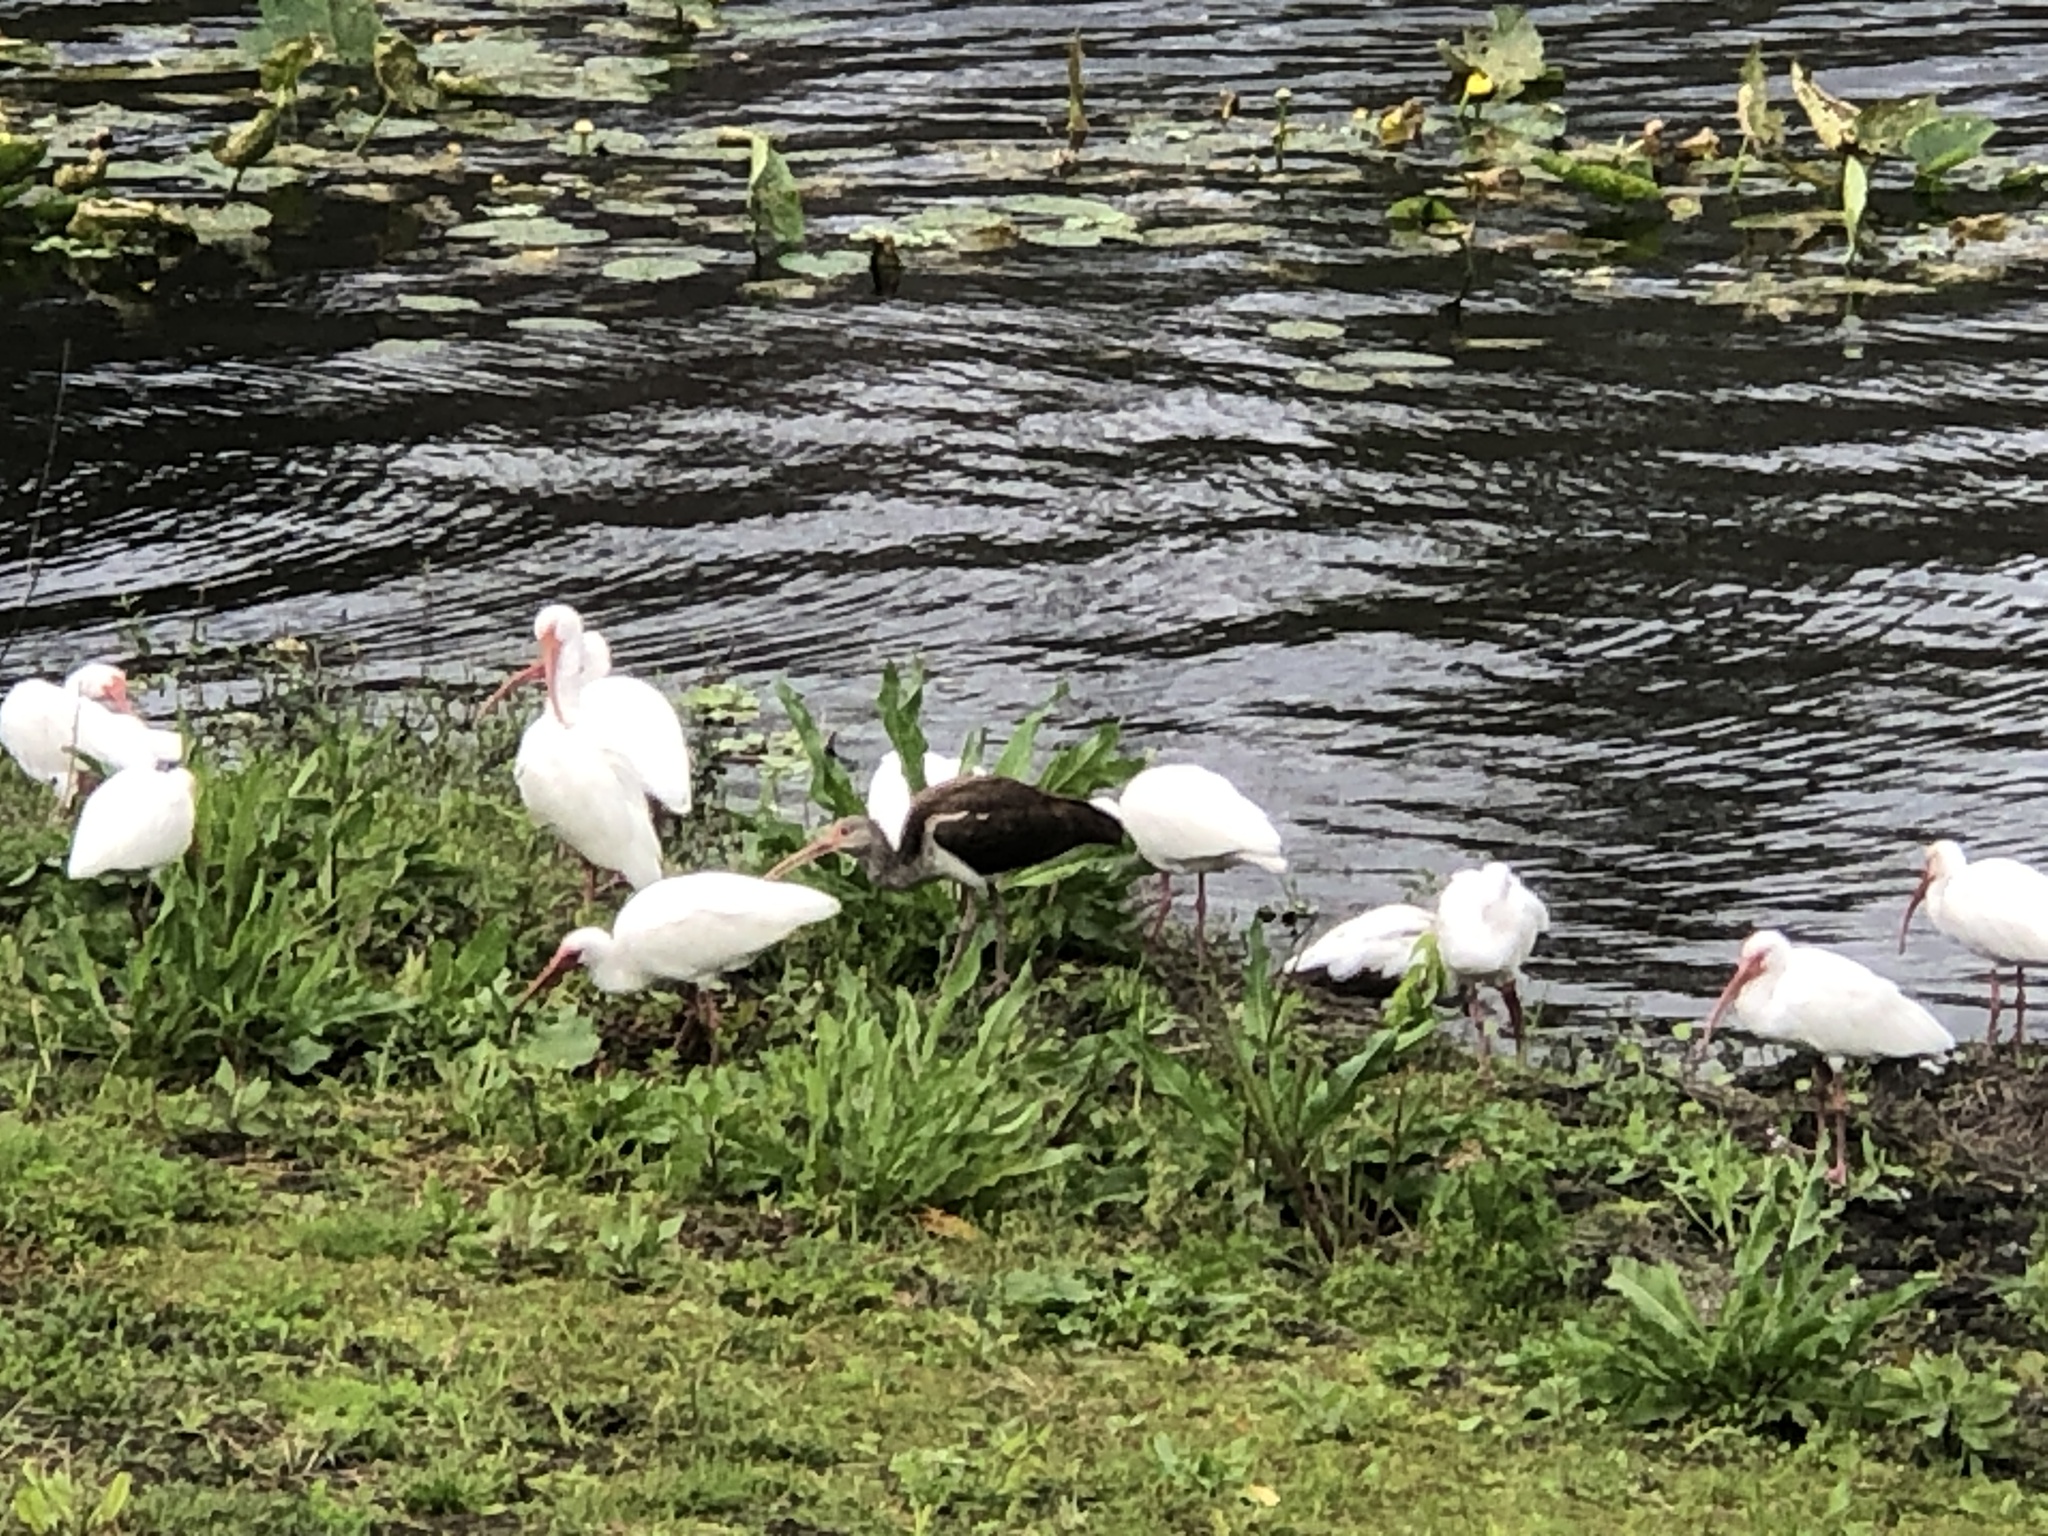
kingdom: Animalia
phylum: Chordata
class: Aves
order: Pelecaniformes
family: Threskiornithidae
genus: Eudocimus
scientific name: Eudocimus albus
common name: White ibis
